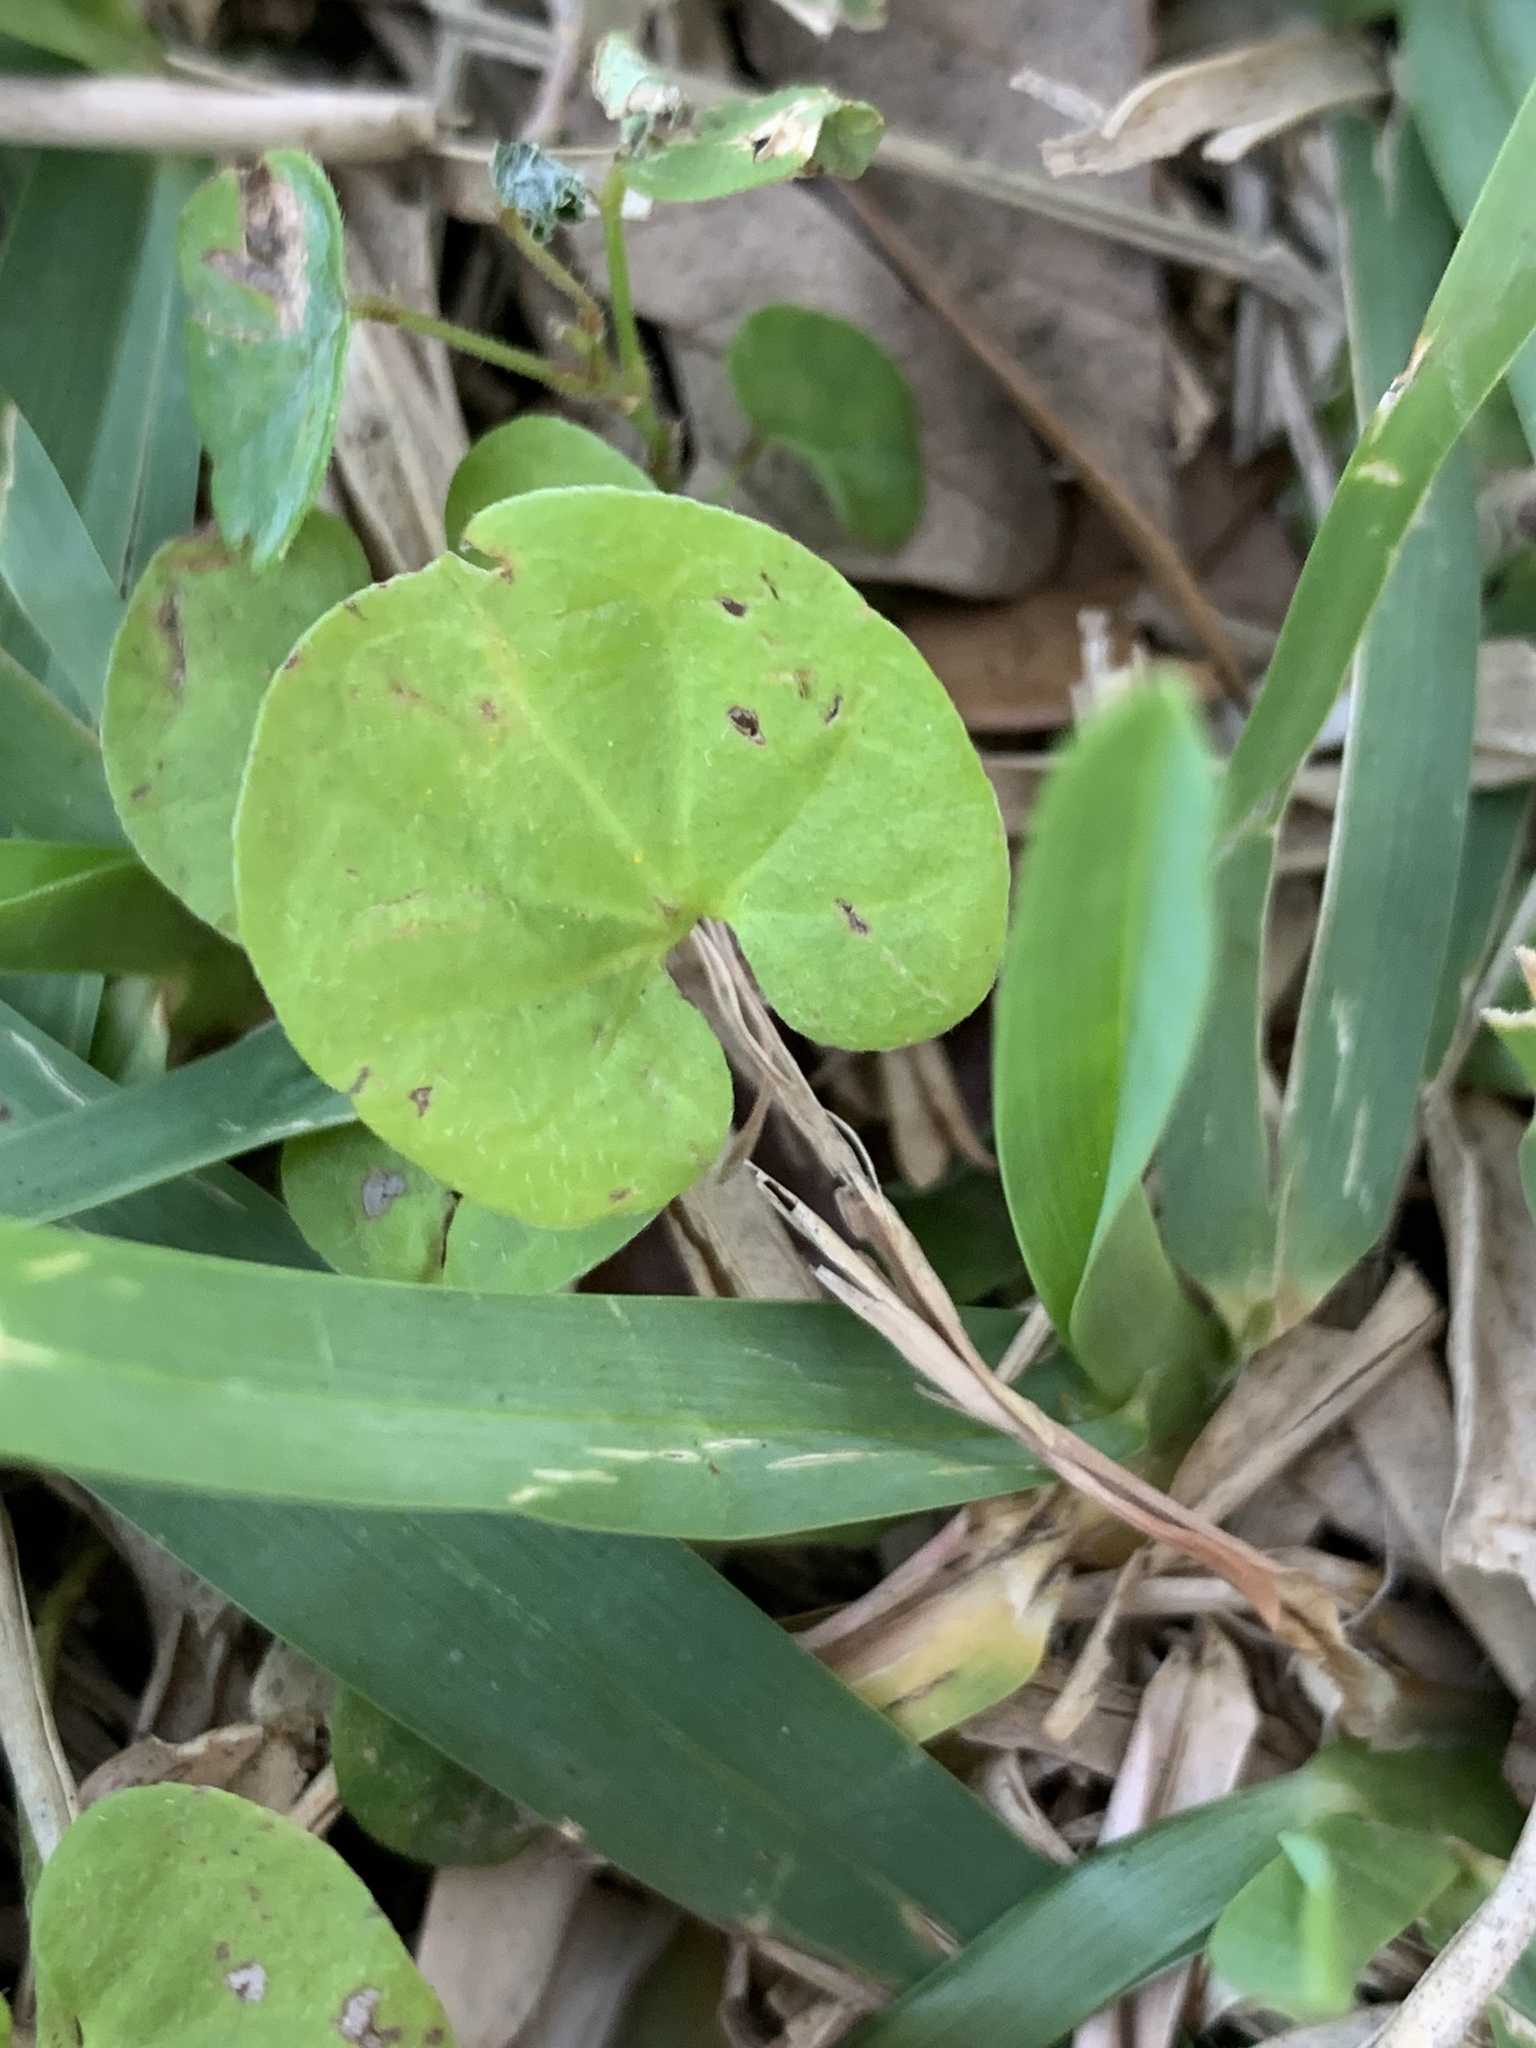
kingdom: Plantae
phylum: Tracheophyta
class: Magnoliopsida
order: Solanales
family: Convolvulaceae
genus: Dichondra
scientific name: Dichondra carolinensis
